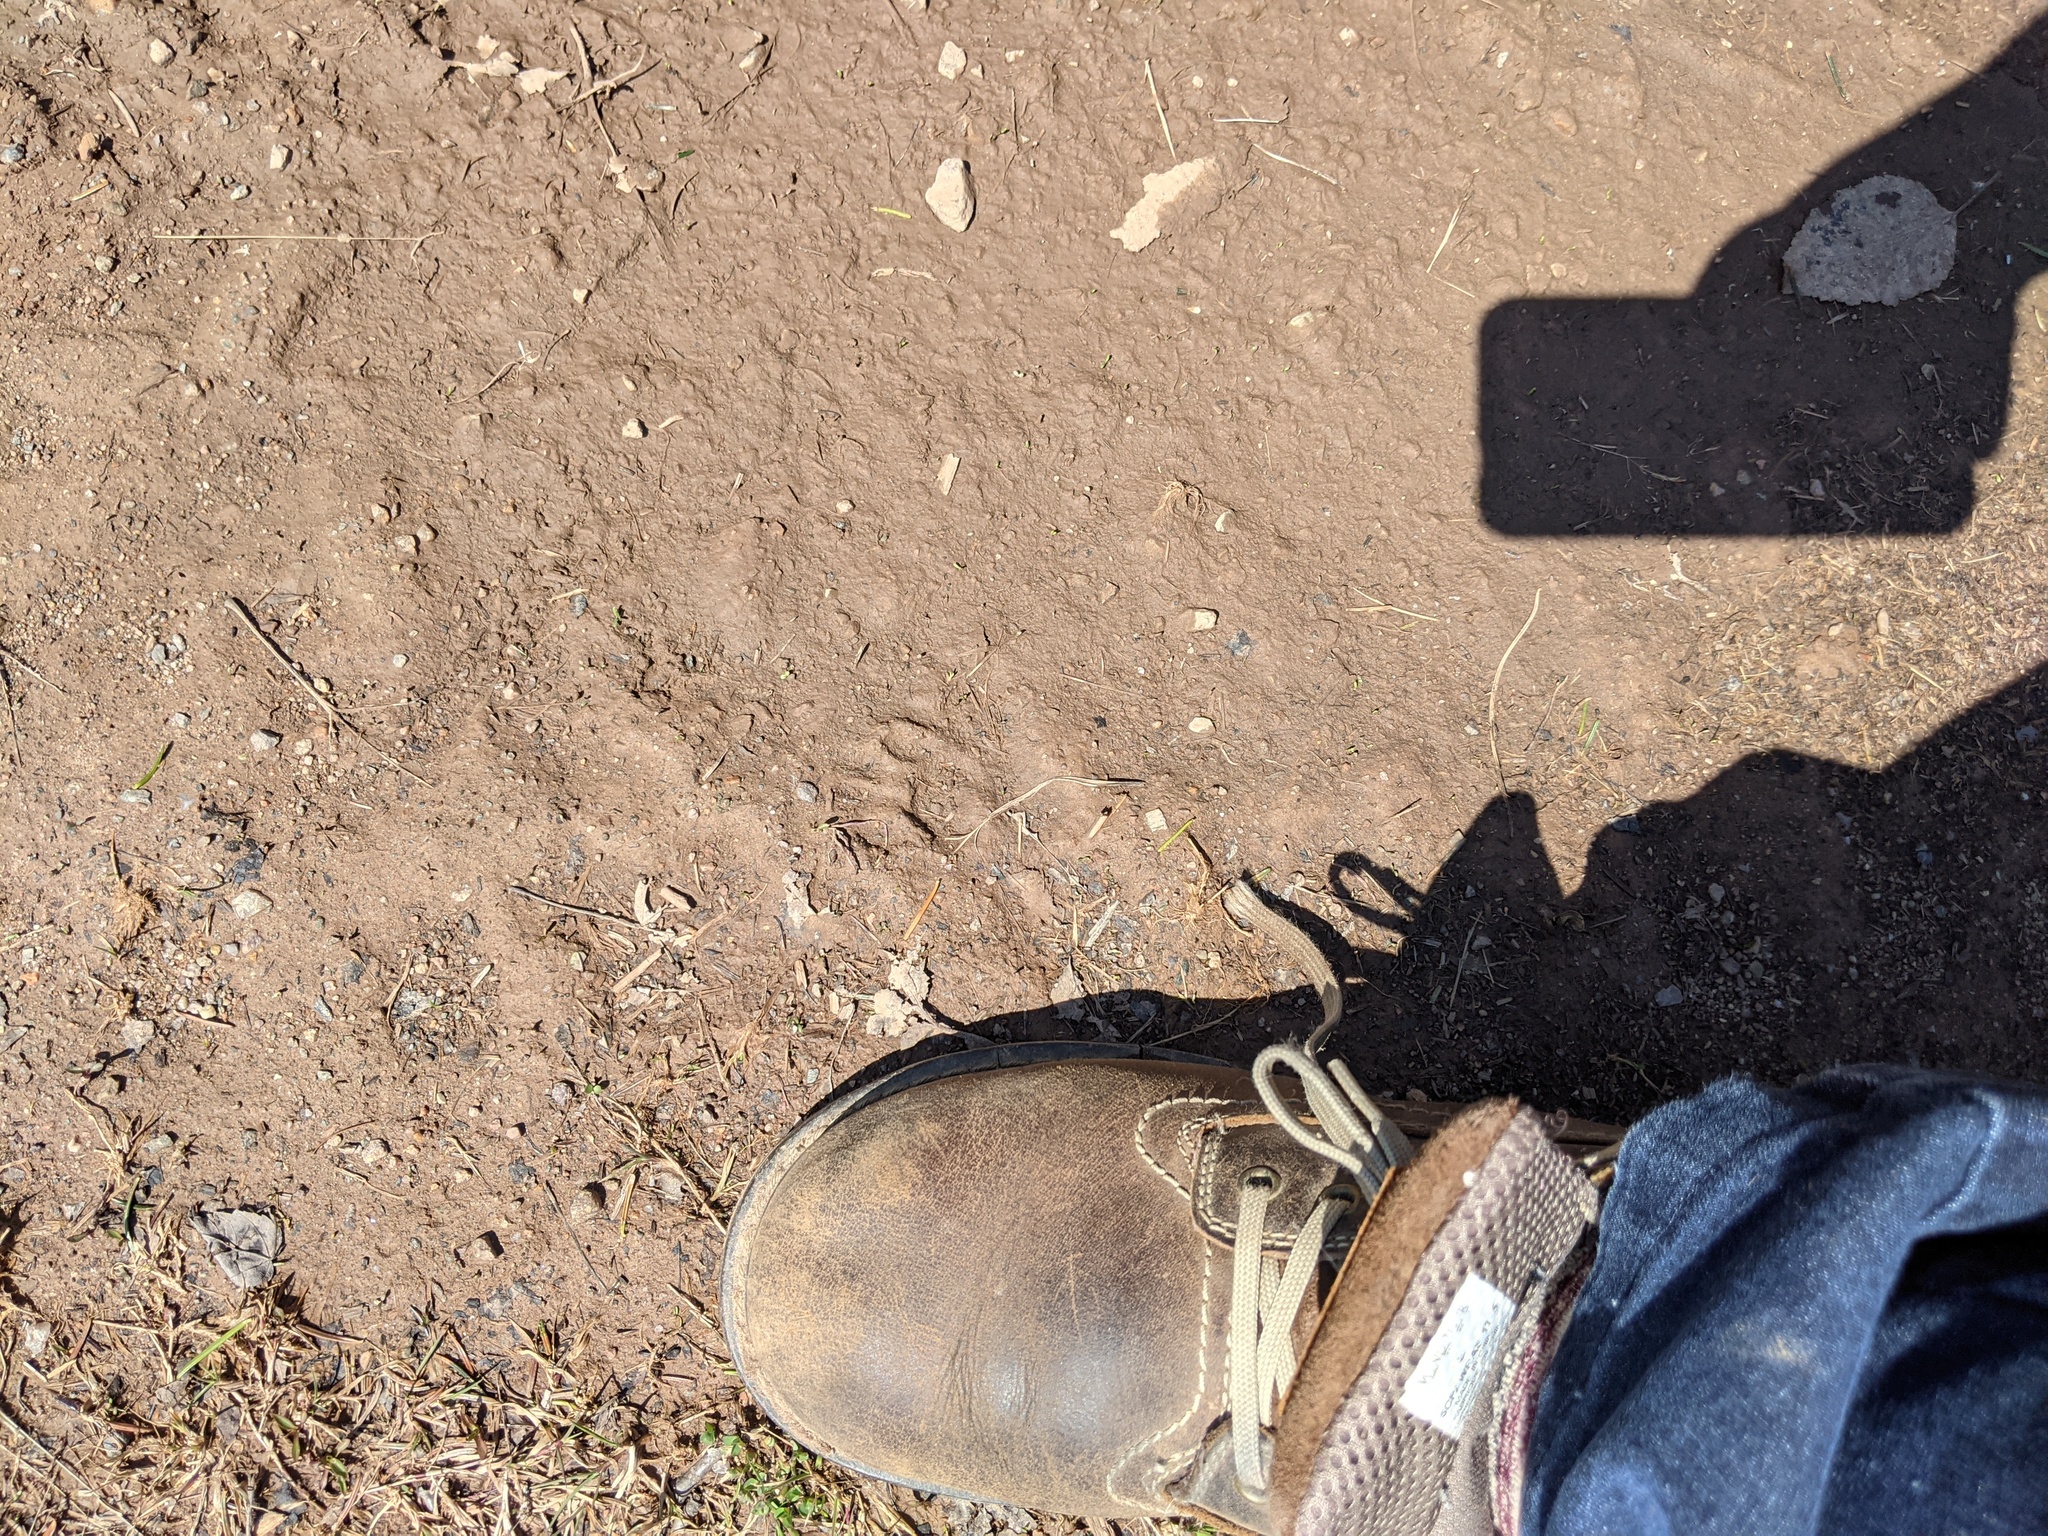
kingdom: Animalia
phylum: Chordata
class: Mammalia
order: Carnivora
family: Procyonidae
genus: Procyon
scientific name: Procyon lotor
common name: Raccoon
